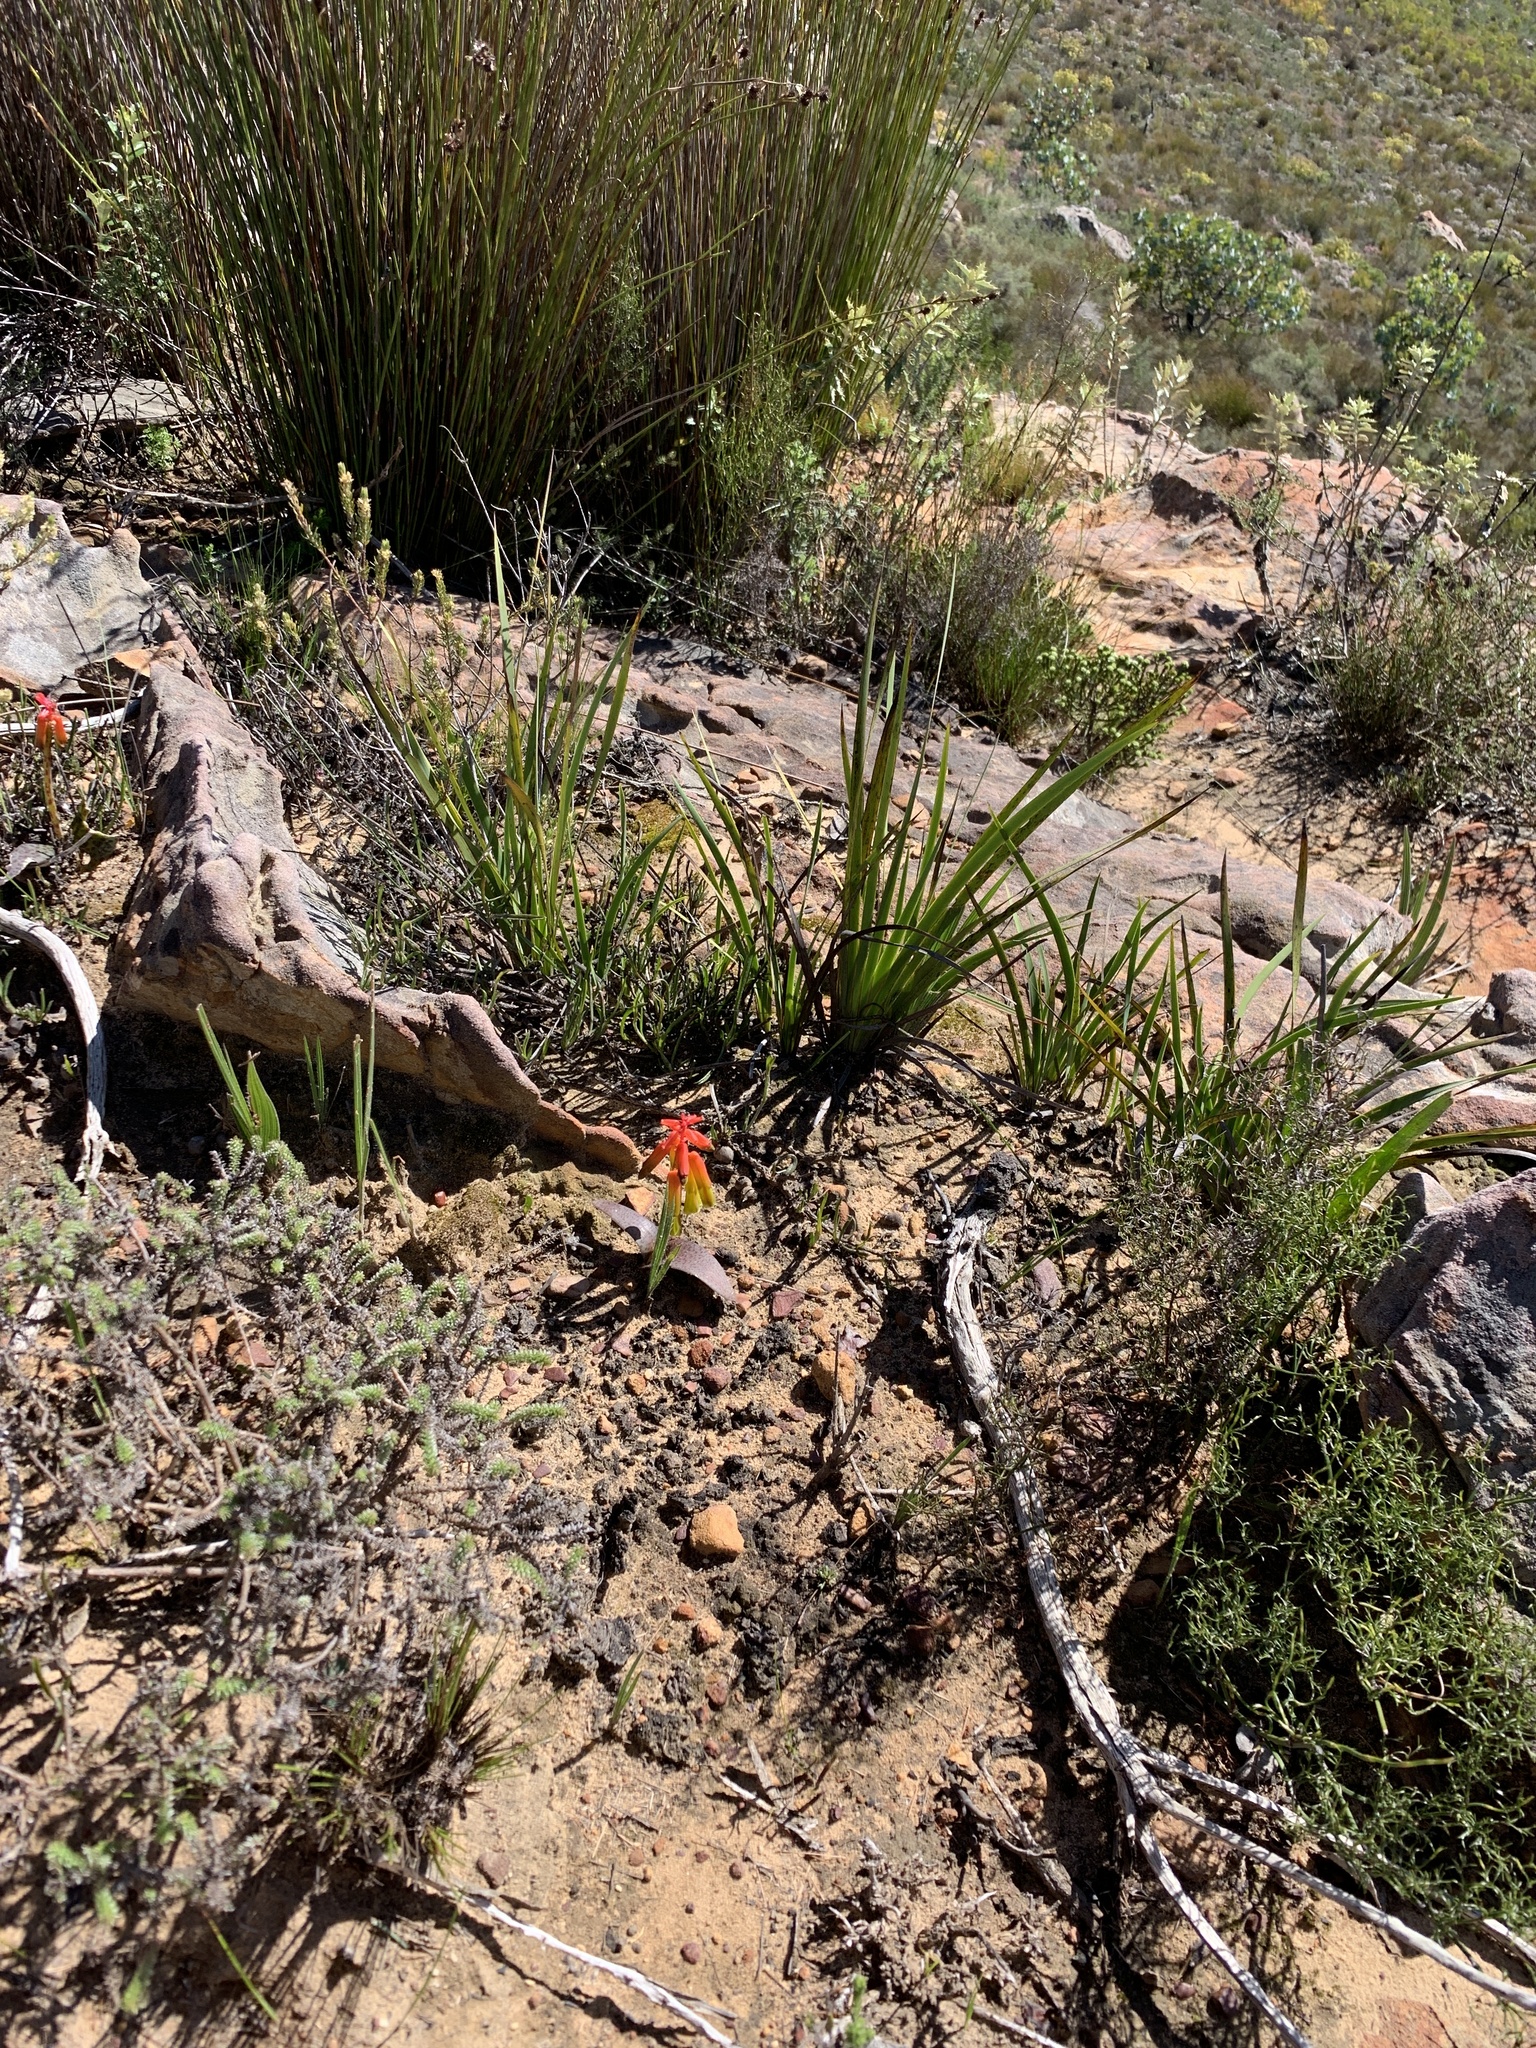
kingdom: Plantae
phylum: Tracheophyta
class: Liliopsida
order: Asparagales
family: Asparagaceae
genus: Lachenalia
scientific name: Lachenalia callista
